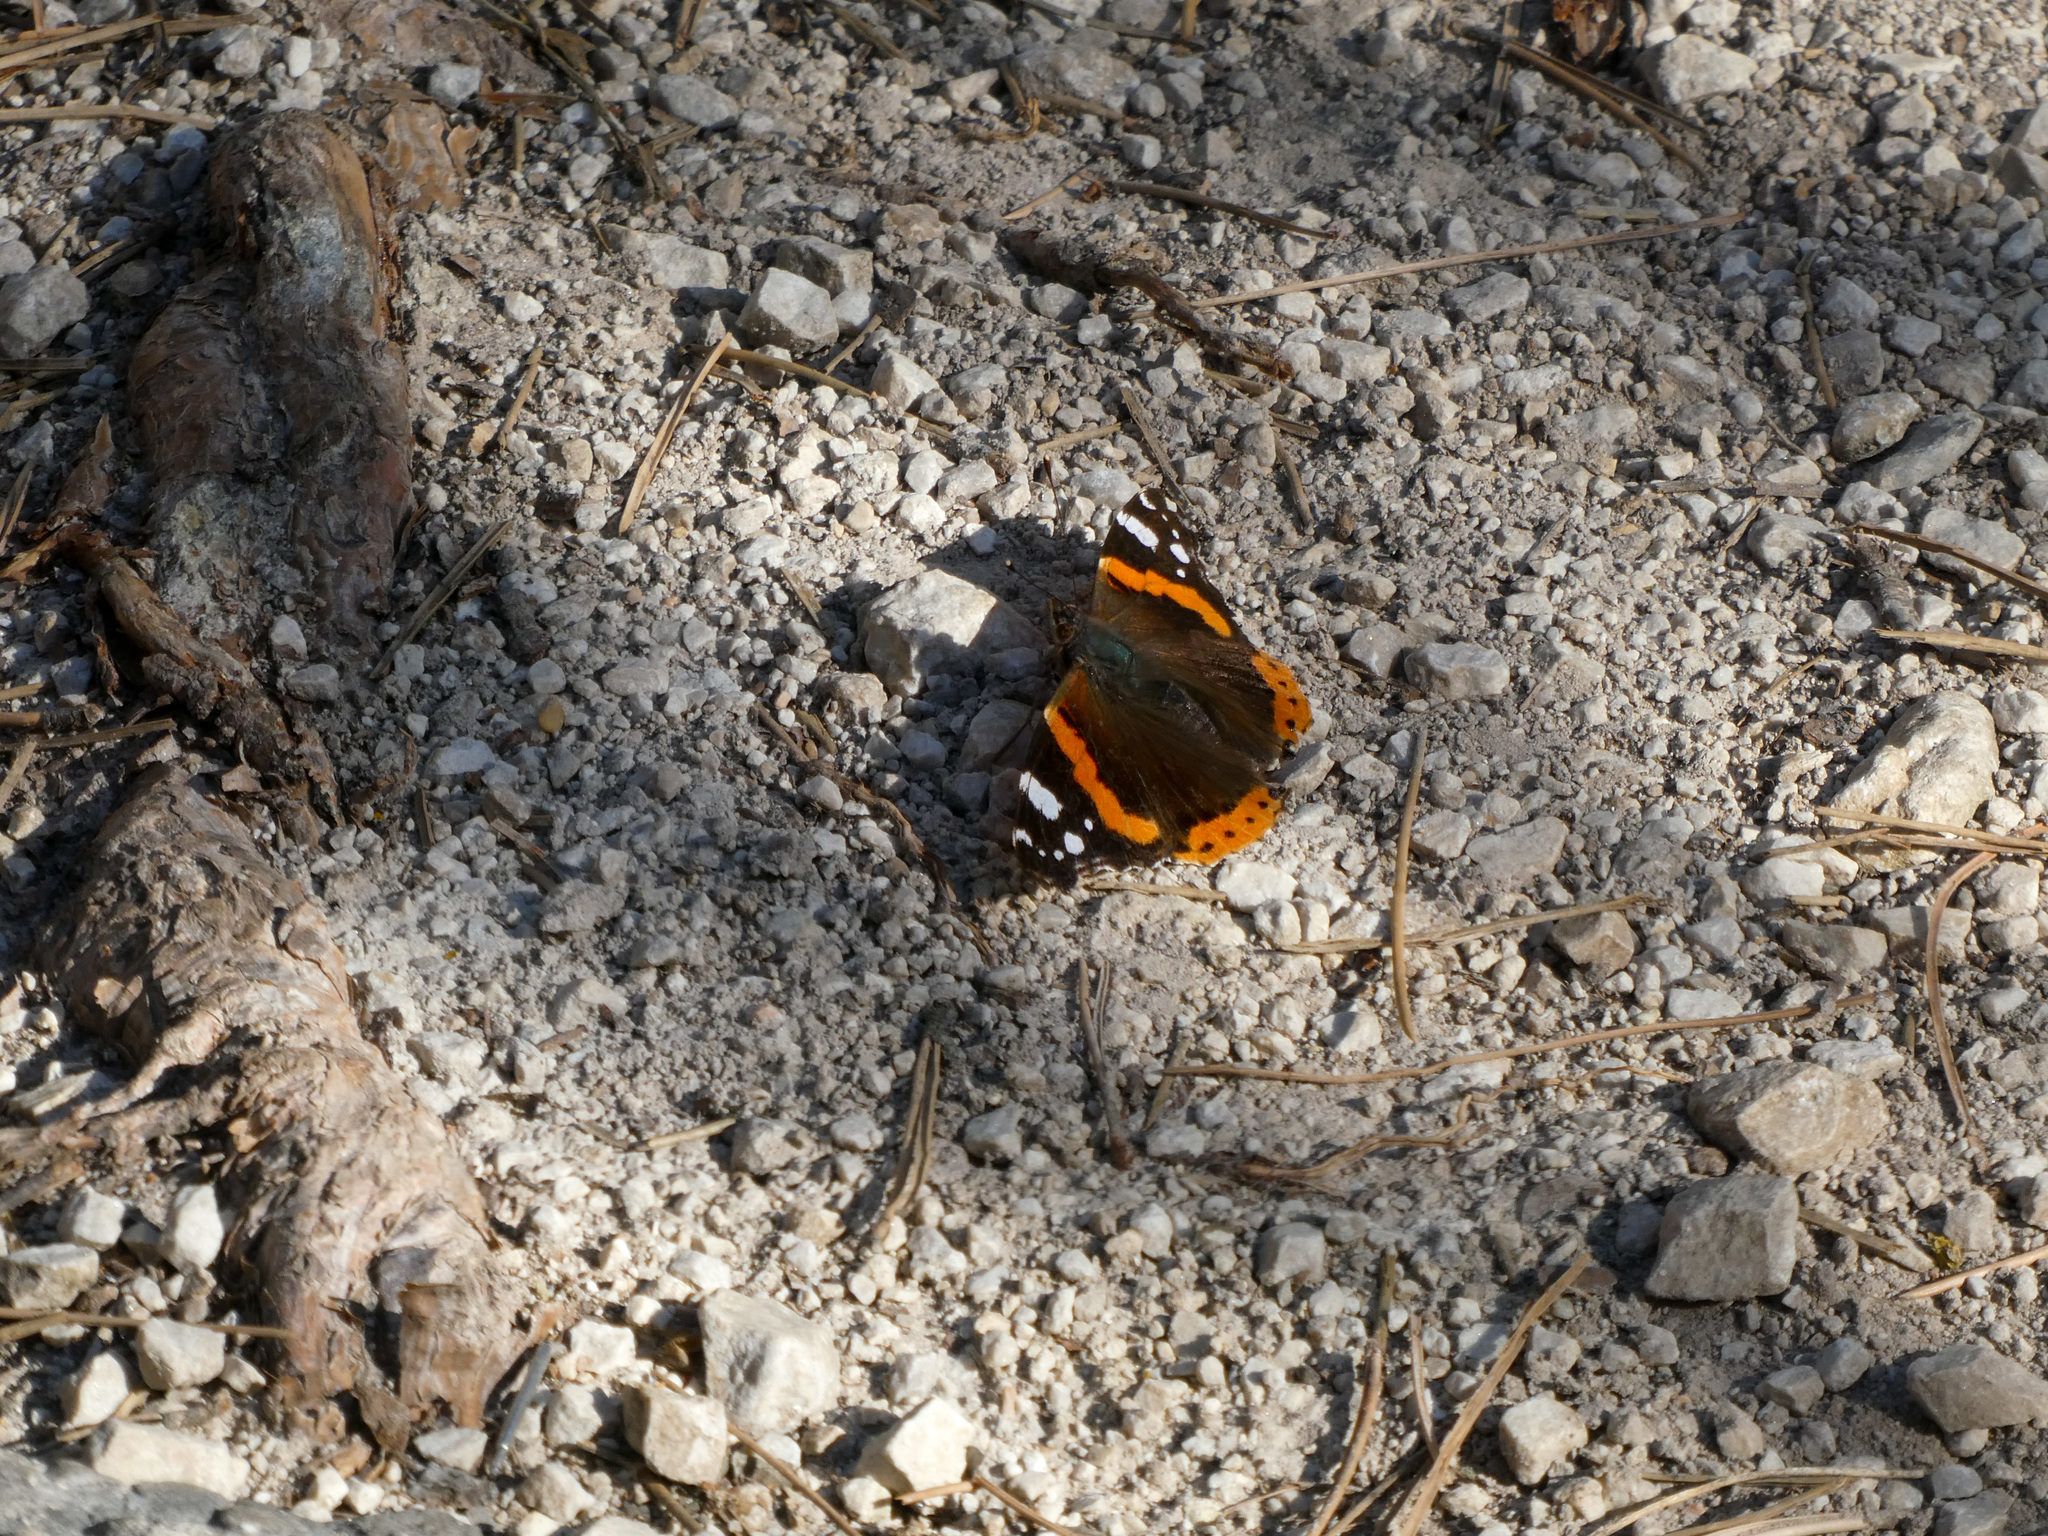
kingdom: Animalia
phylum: Arthropoda
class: Insecta
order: Lepidoptera
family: Nymphalidae
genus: Vanessa
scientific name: Vanessa atalanta
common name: Red admiral
